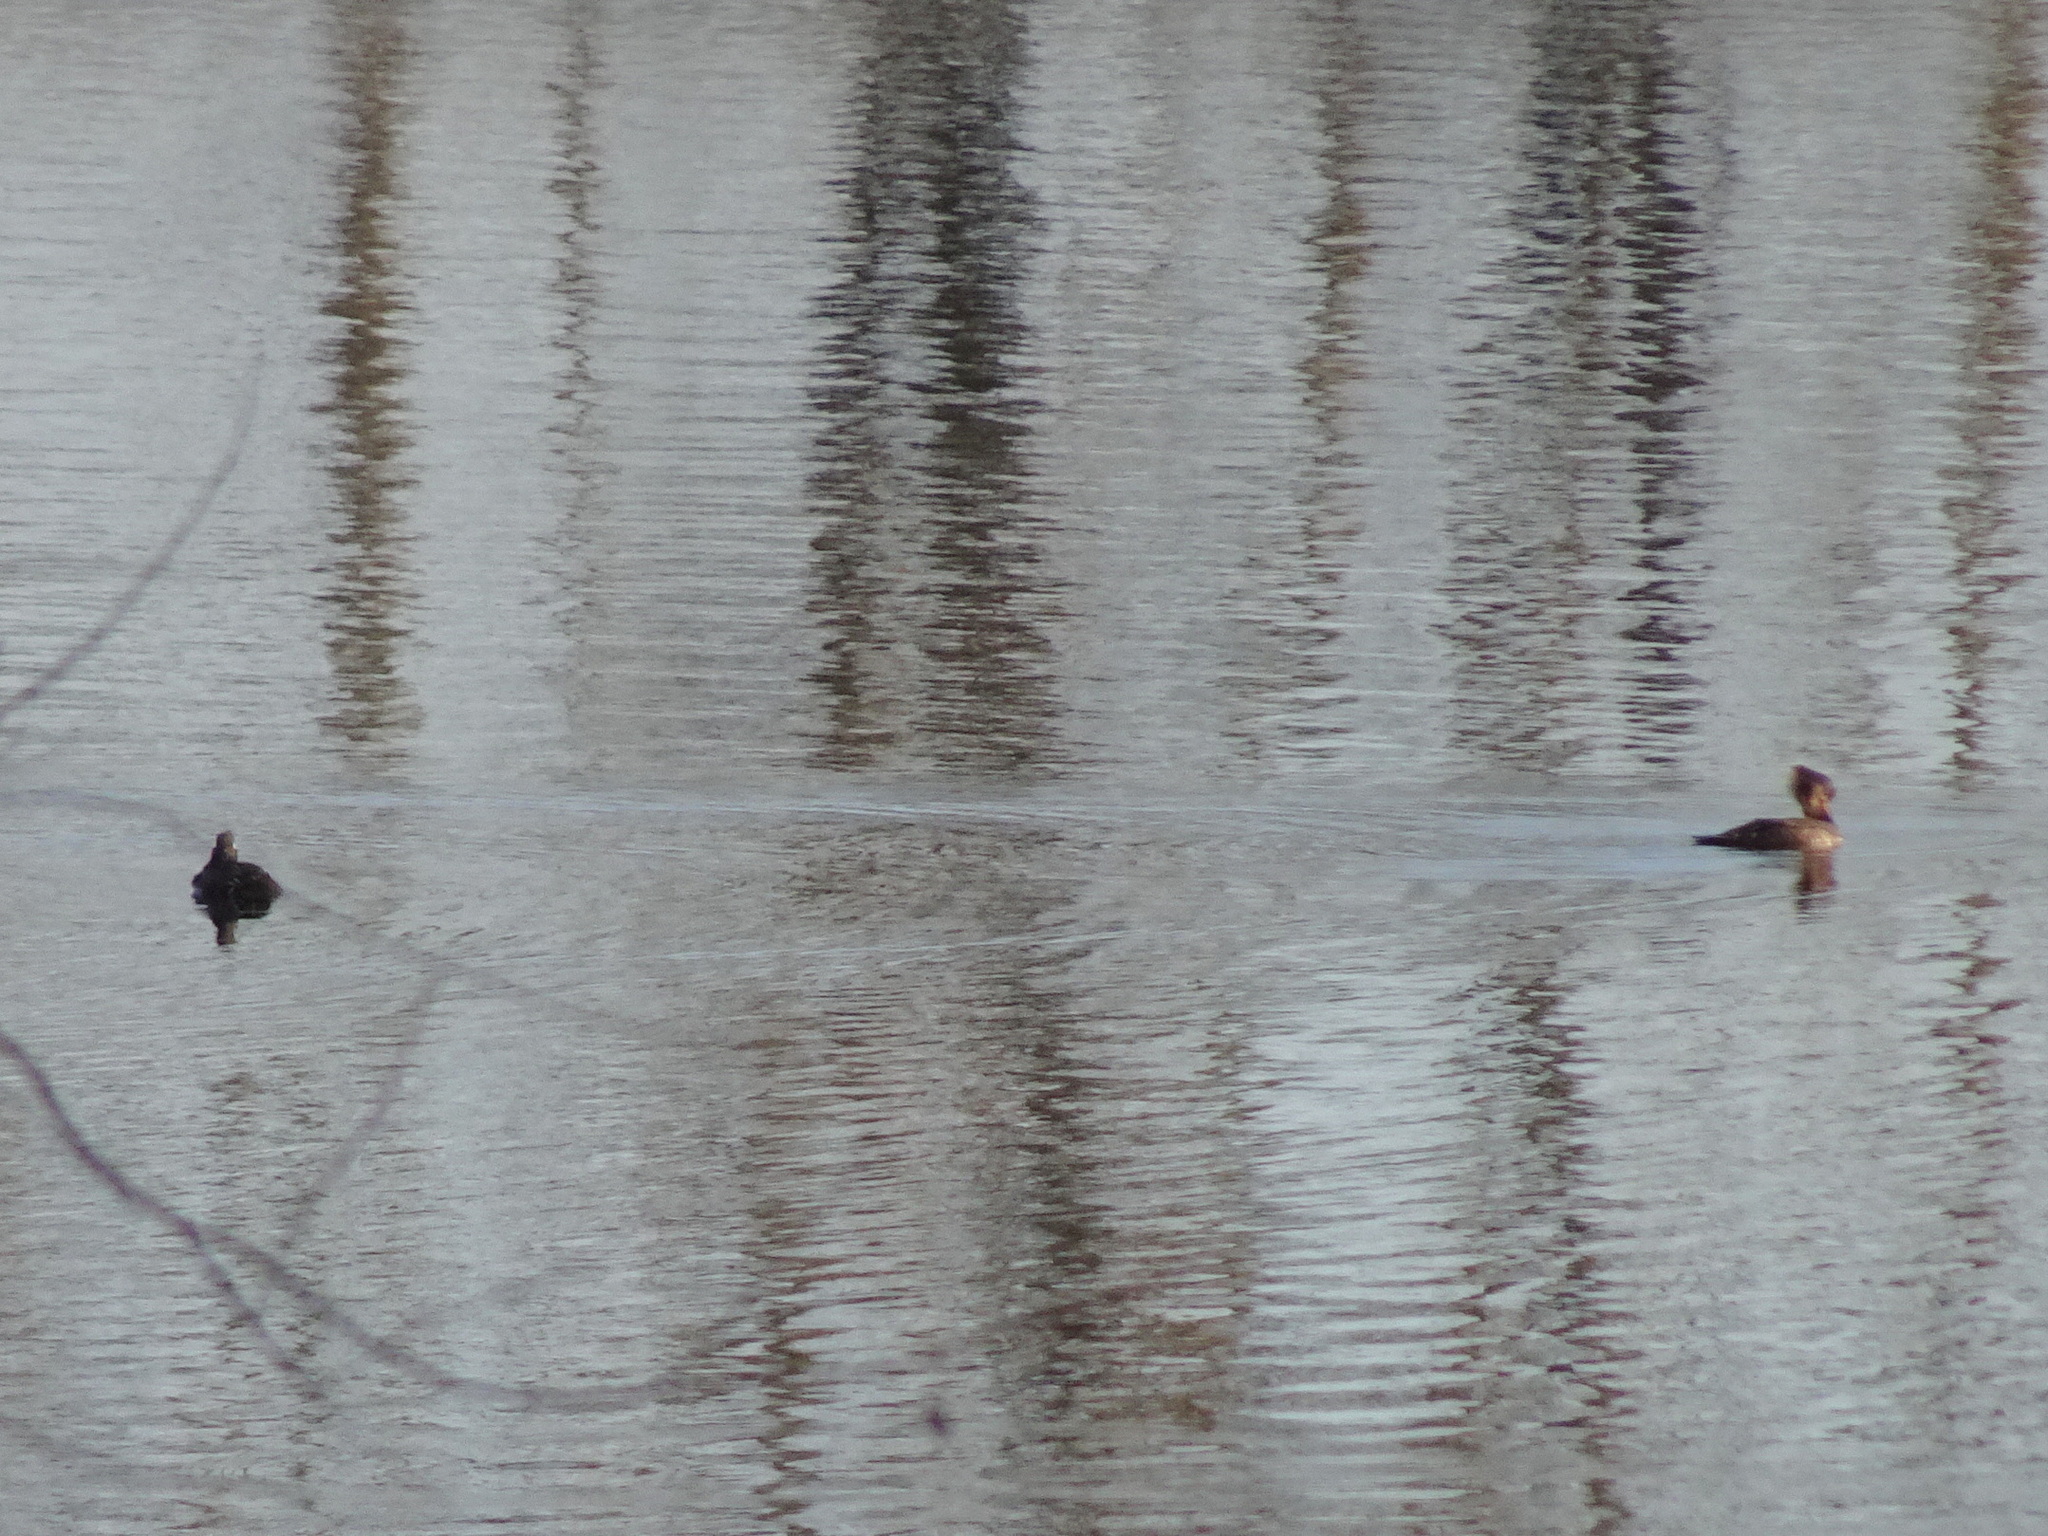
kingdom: Animalia
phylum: Chordata
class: Aves
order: Anseriformes
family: Anatidae
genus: Lophodytes
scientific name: Lophodytes cucullatus
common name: Hooded merganser
